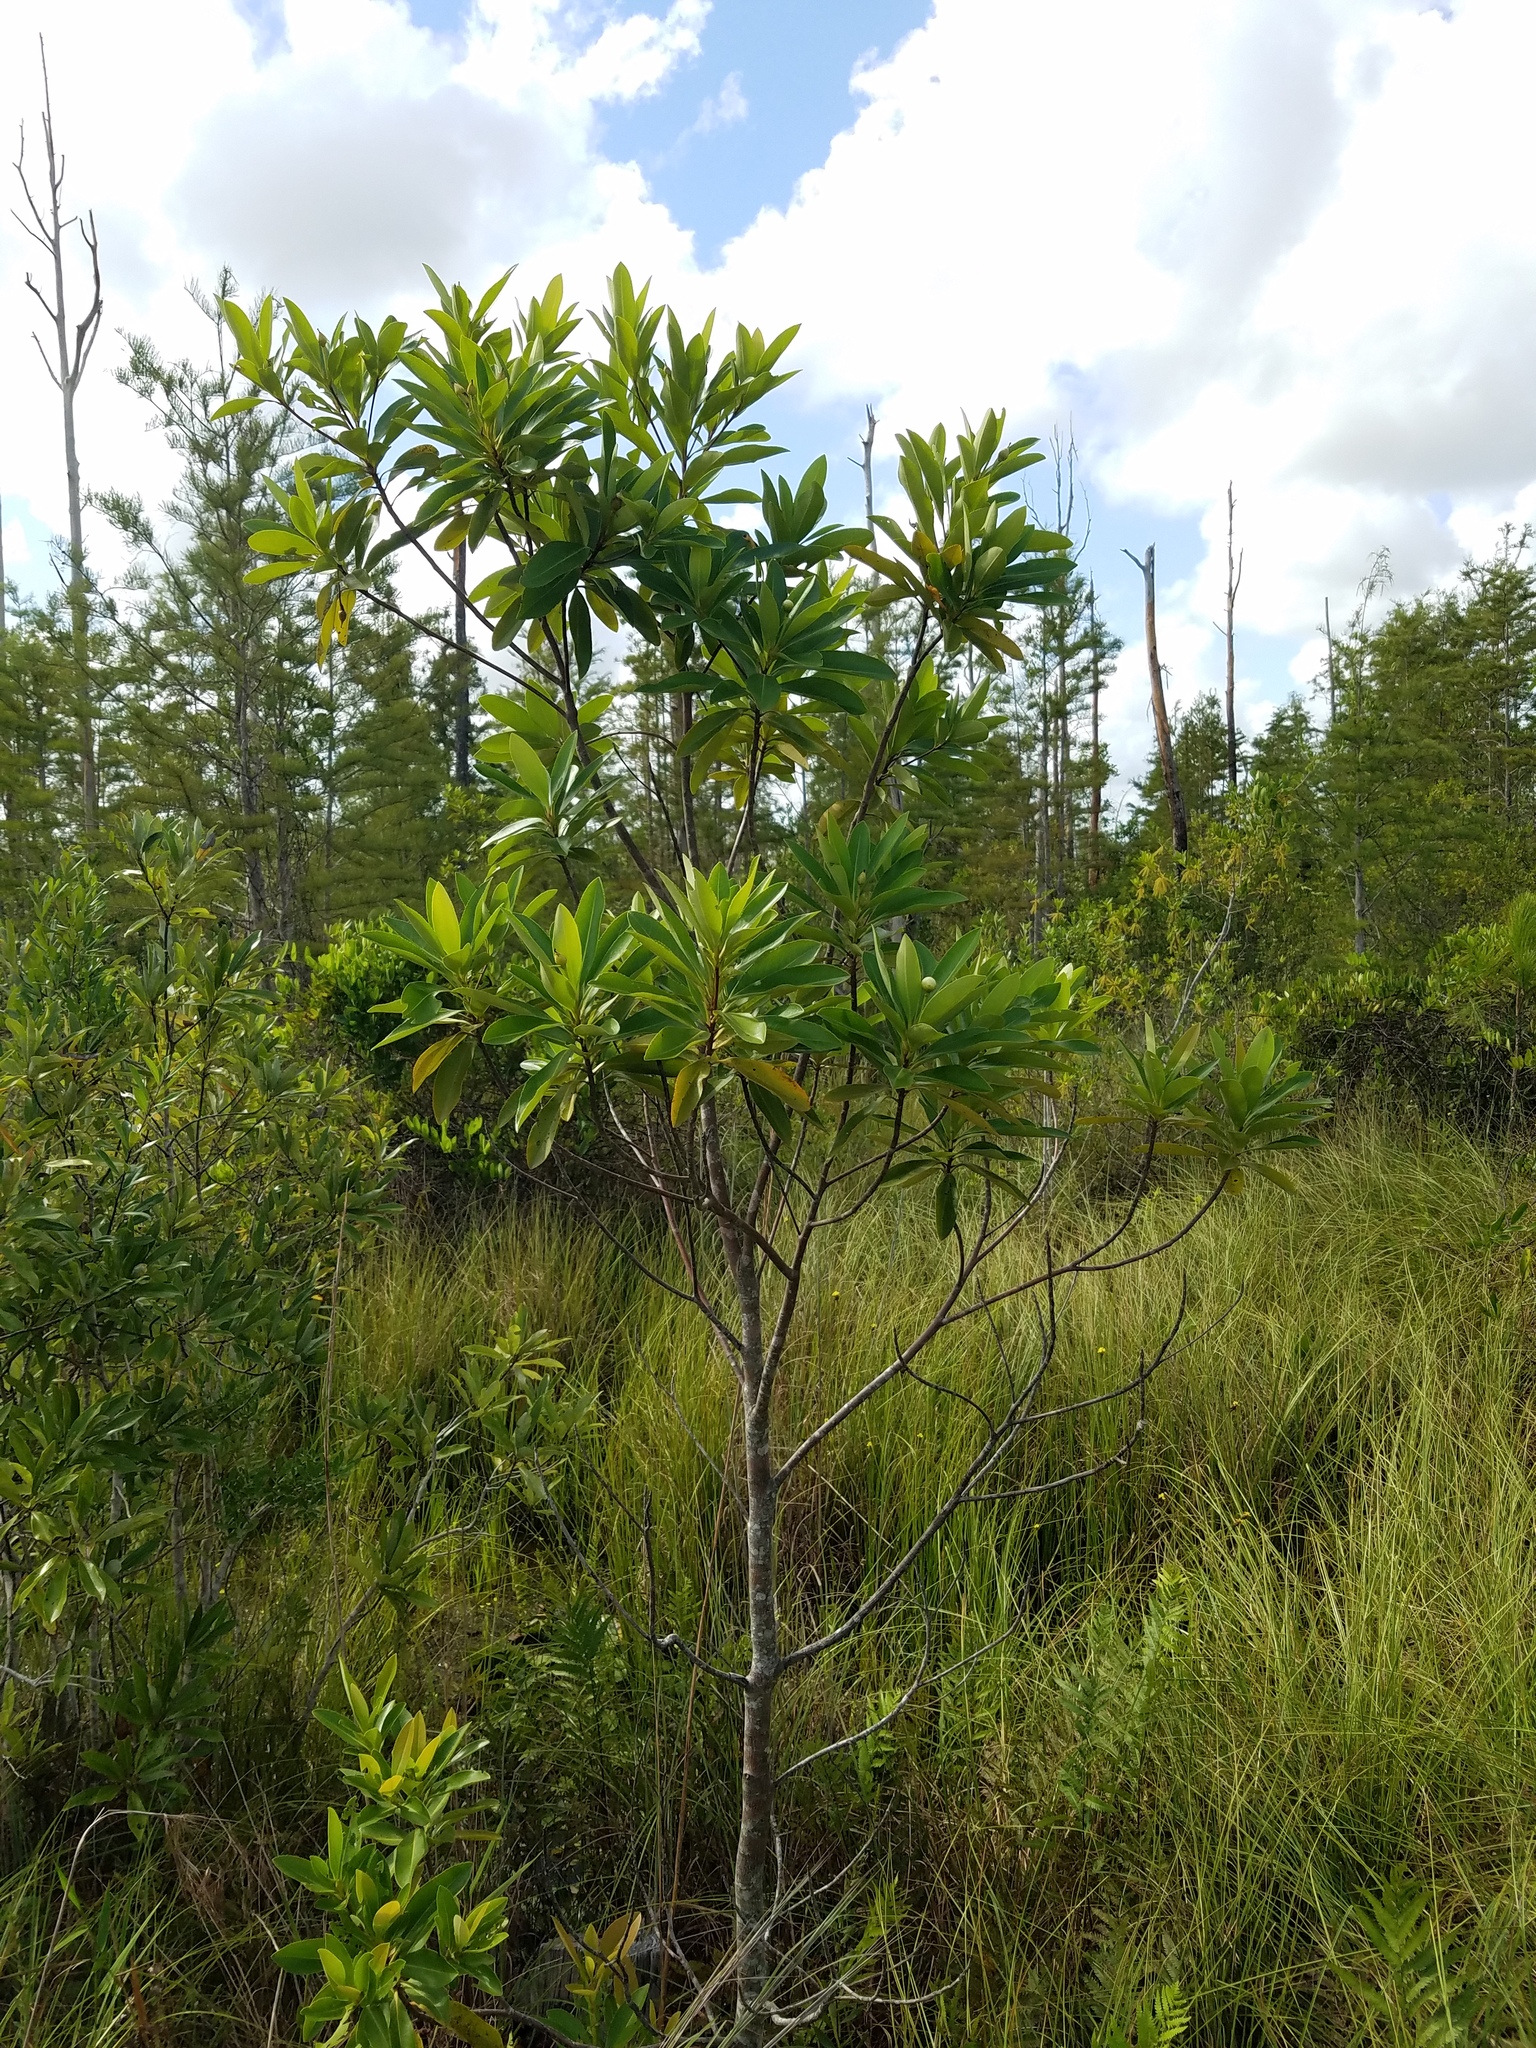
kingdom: Plantae
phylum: Tracheophyta
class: Magnoliopsida
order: Ericales
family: Theaceae
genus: Gordonia
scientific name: Gordonia lasianthus
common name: Loblolly bay
